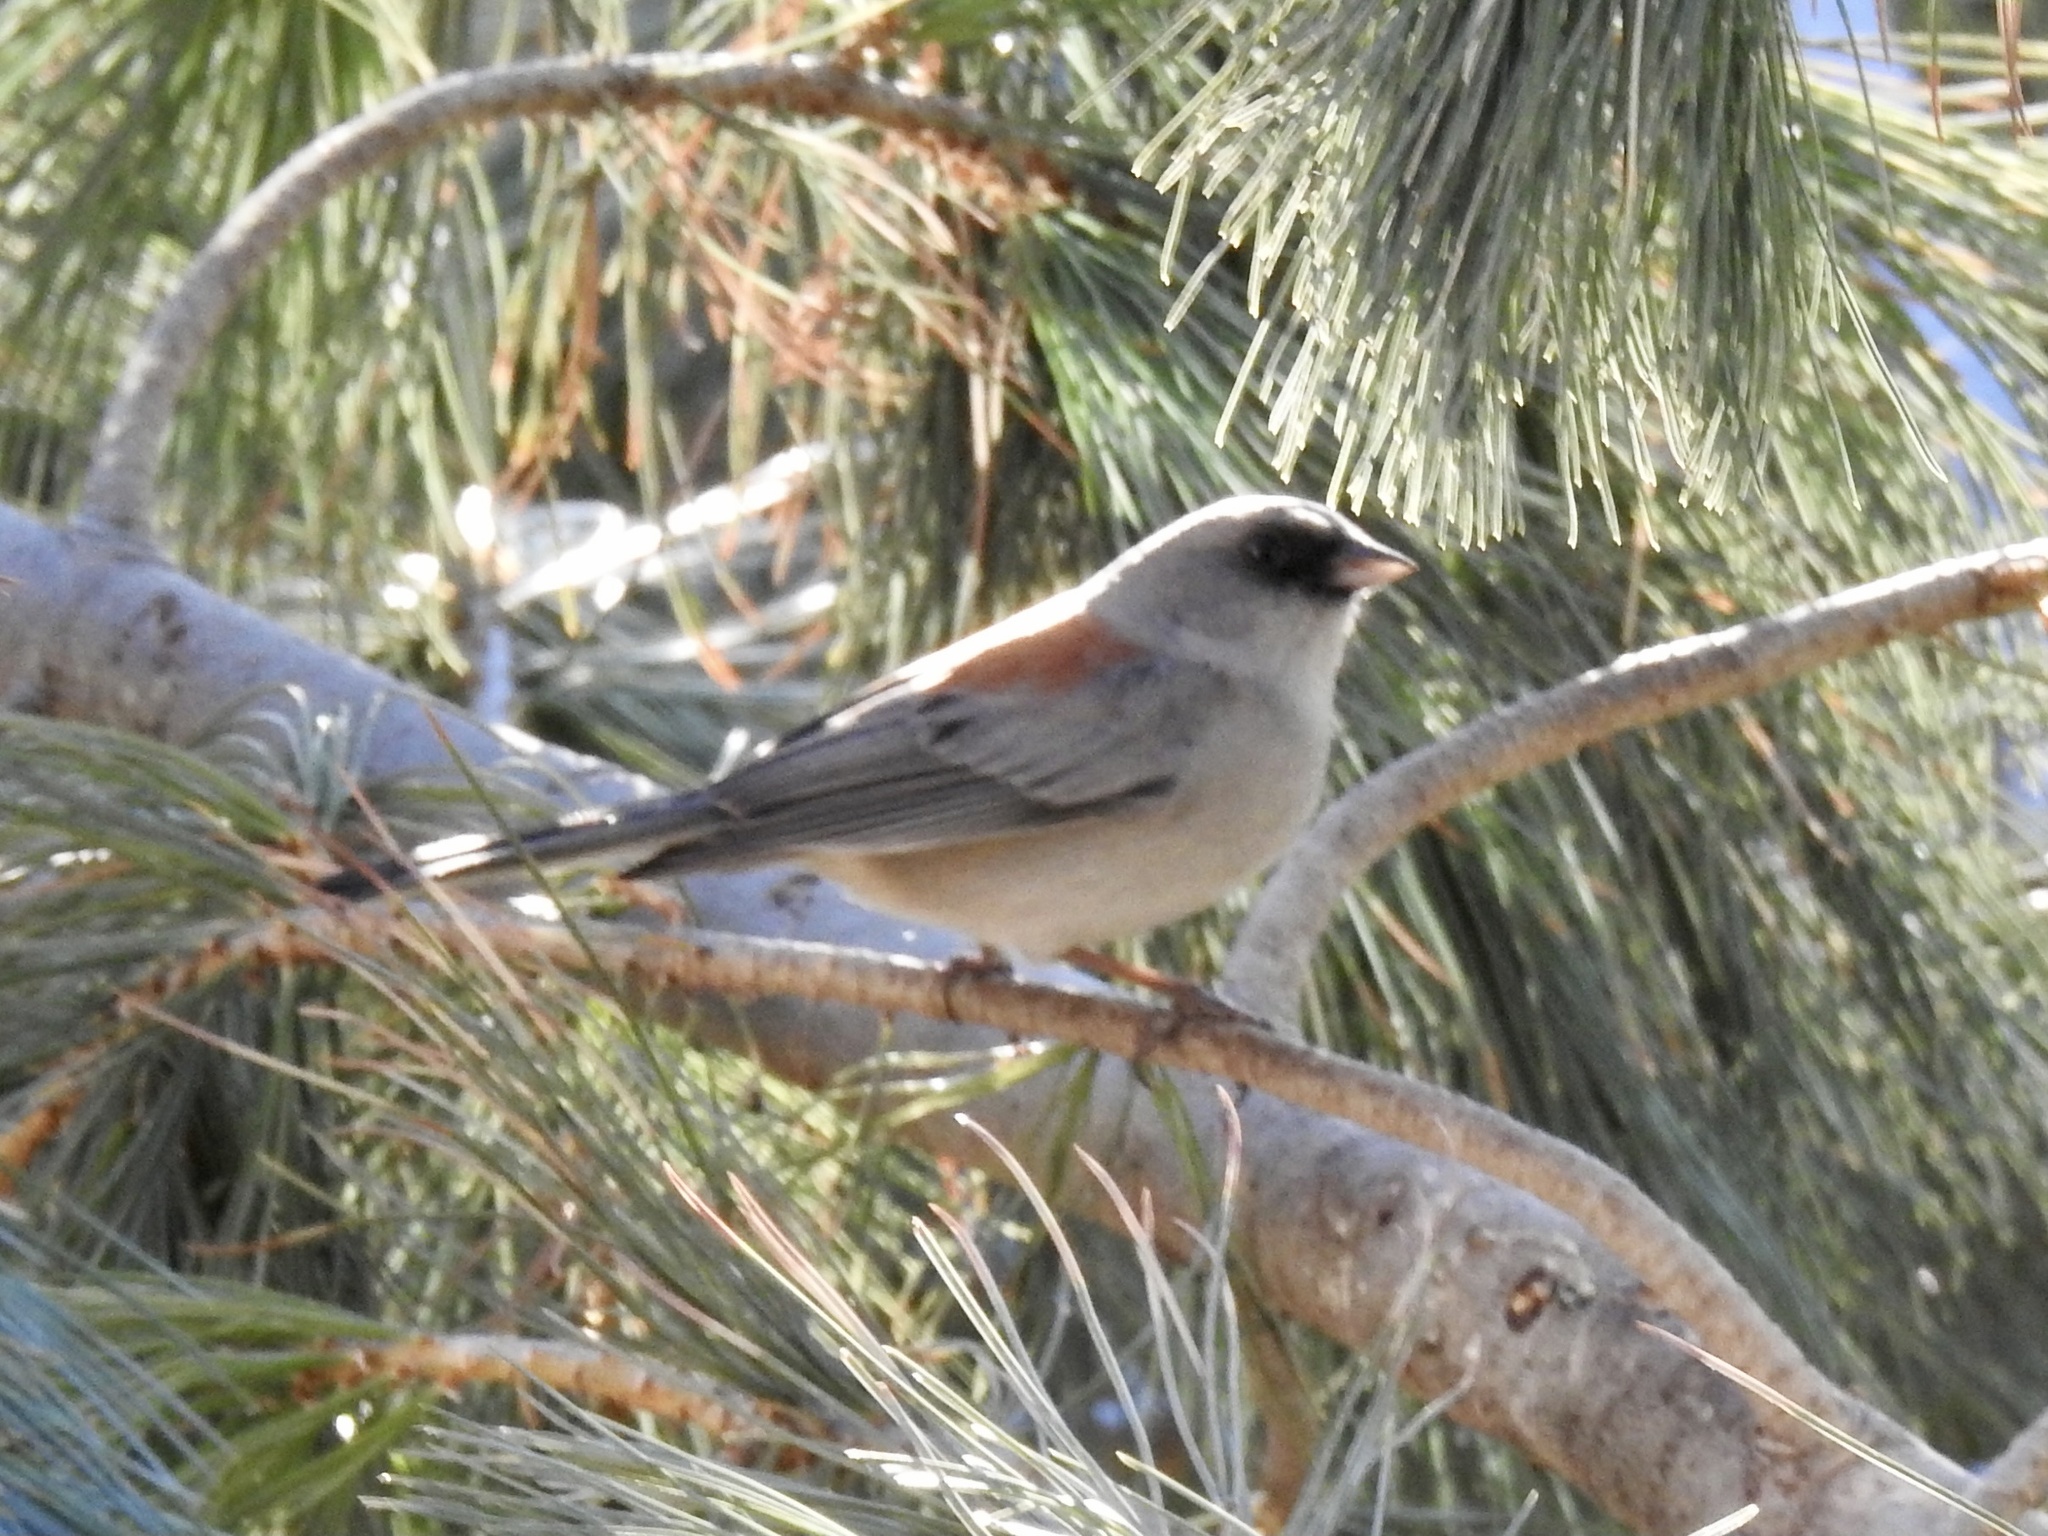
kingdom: Animalia
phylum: Chordata
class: Aves
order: Passeriformes
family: Passerellidae
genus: Junco
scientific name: Junco hyemalis
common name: Dark-eyed junco
